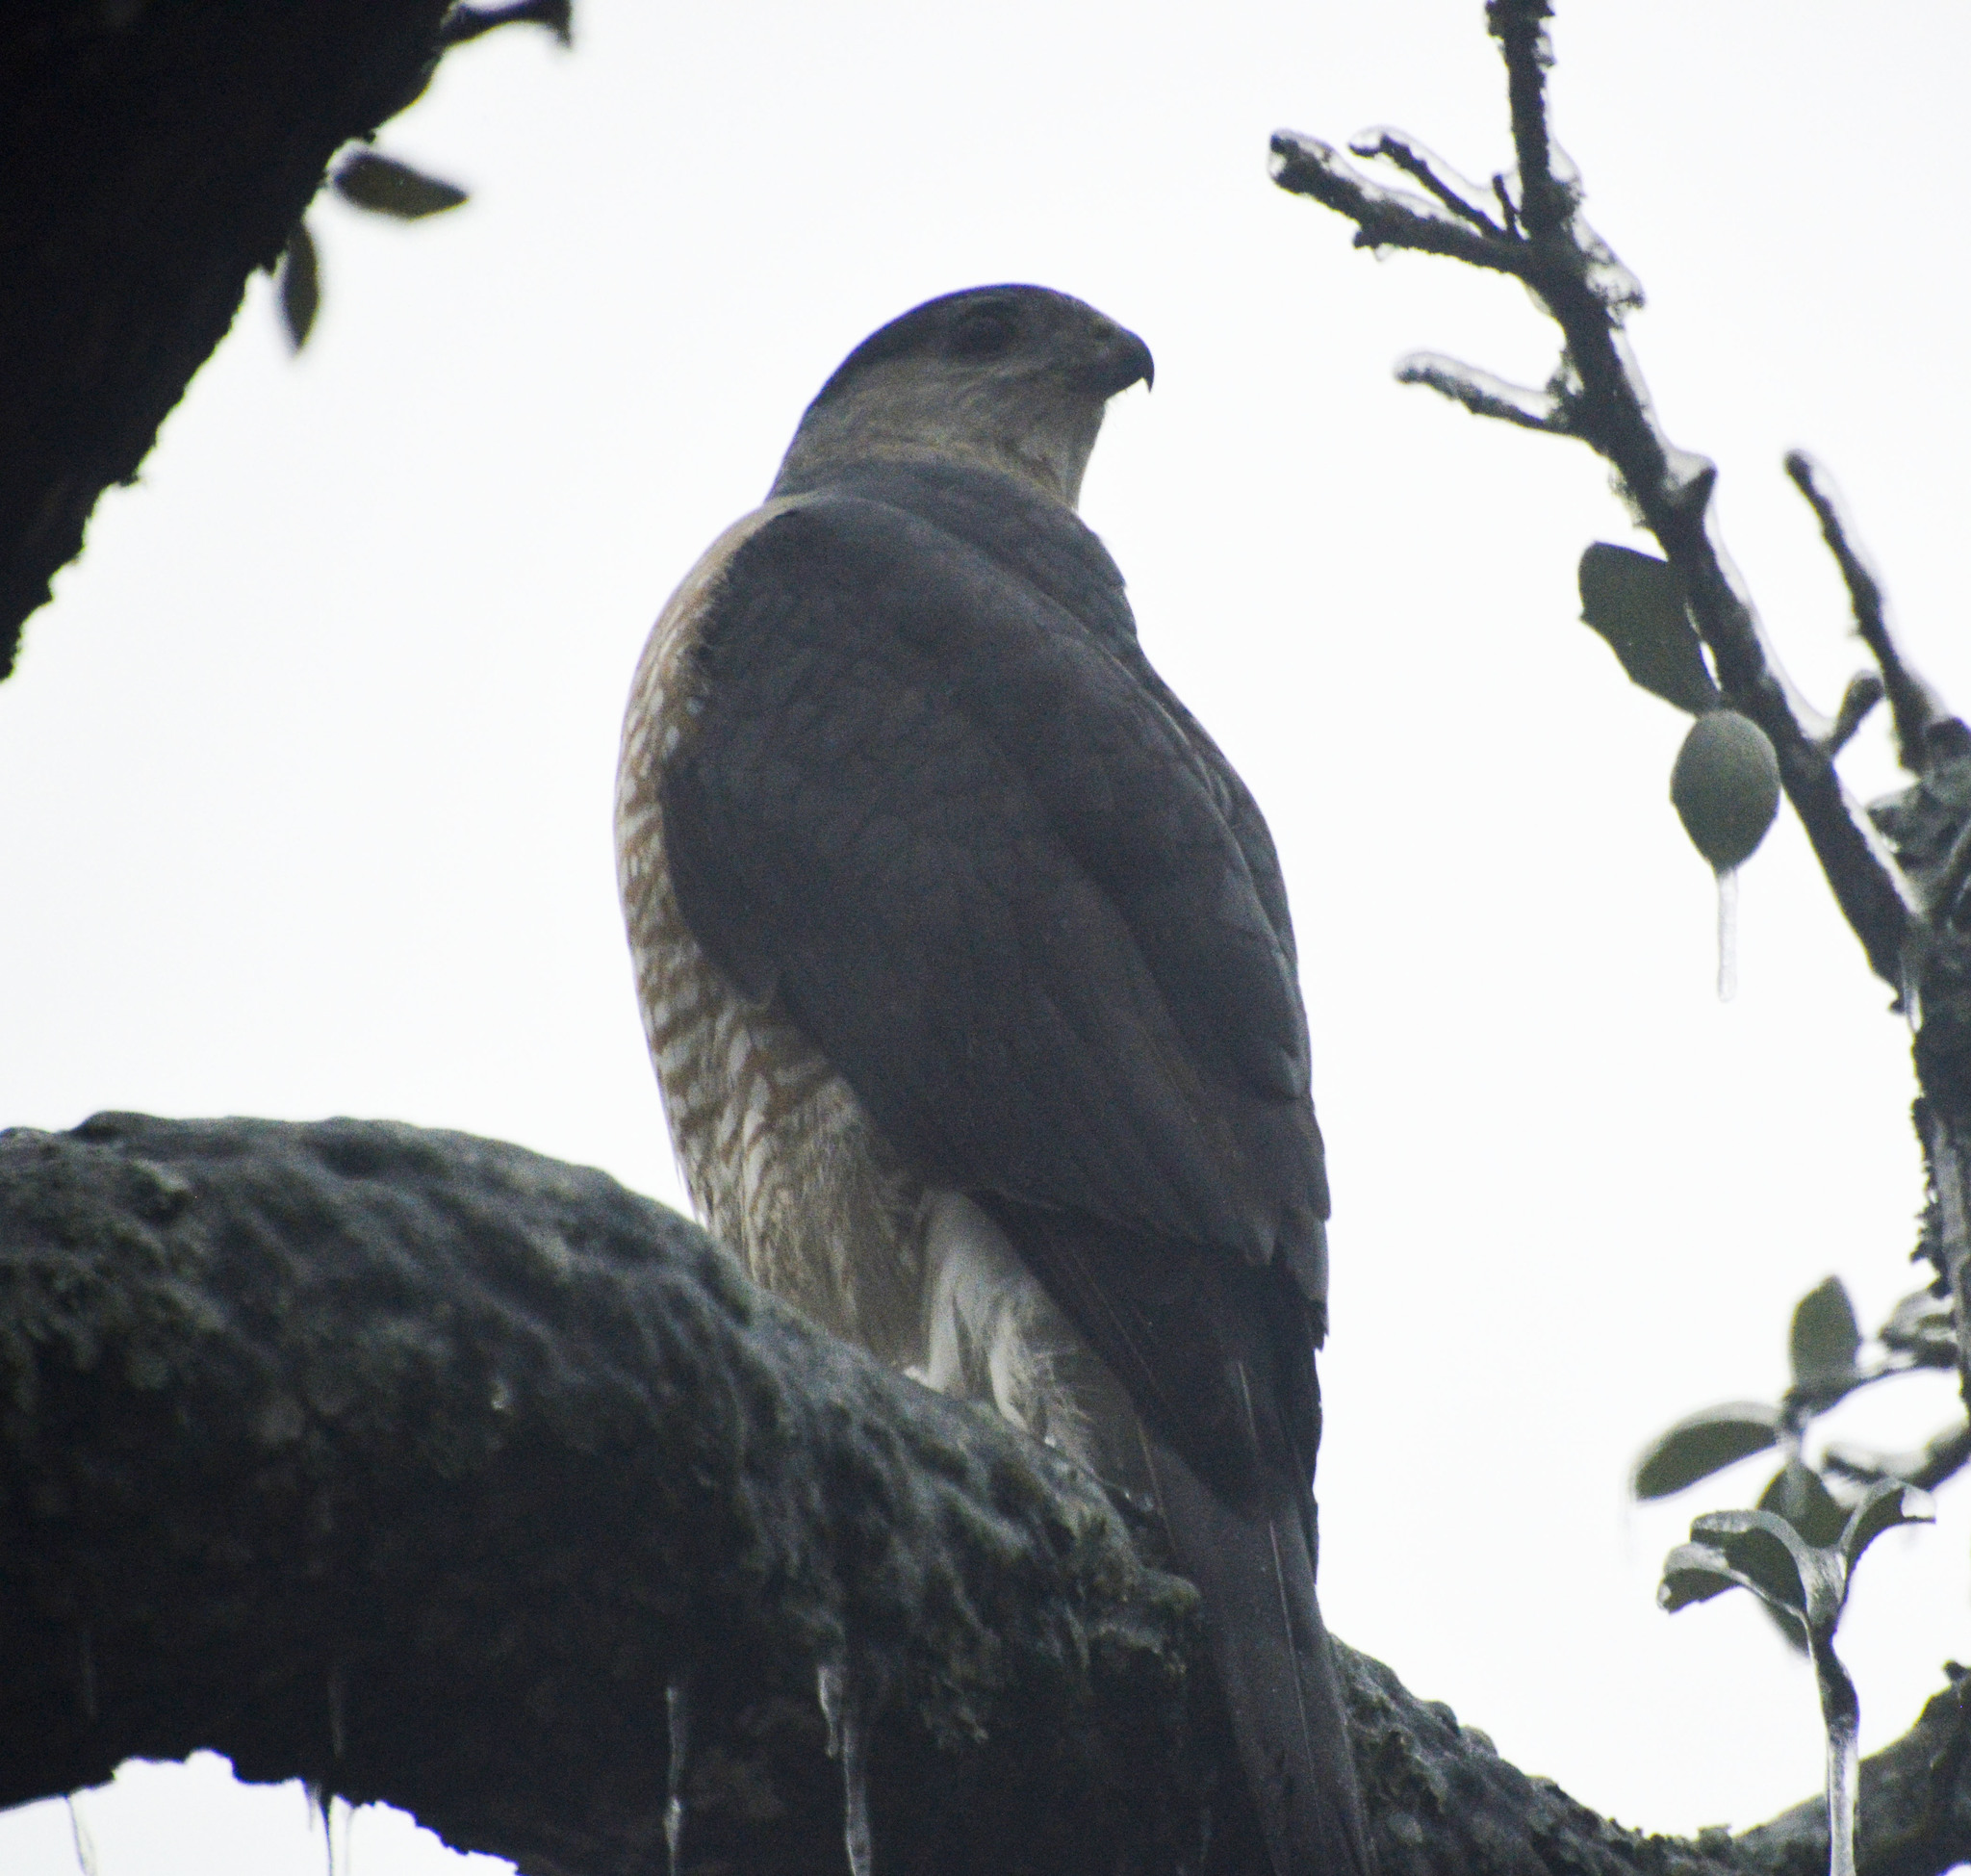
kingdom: Animalia
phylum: Chordata
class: Aves
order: Accipitriformes
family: Accipitridae
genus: Accipiter
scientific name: Accipiter cooperii
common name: Cooper's hawk
